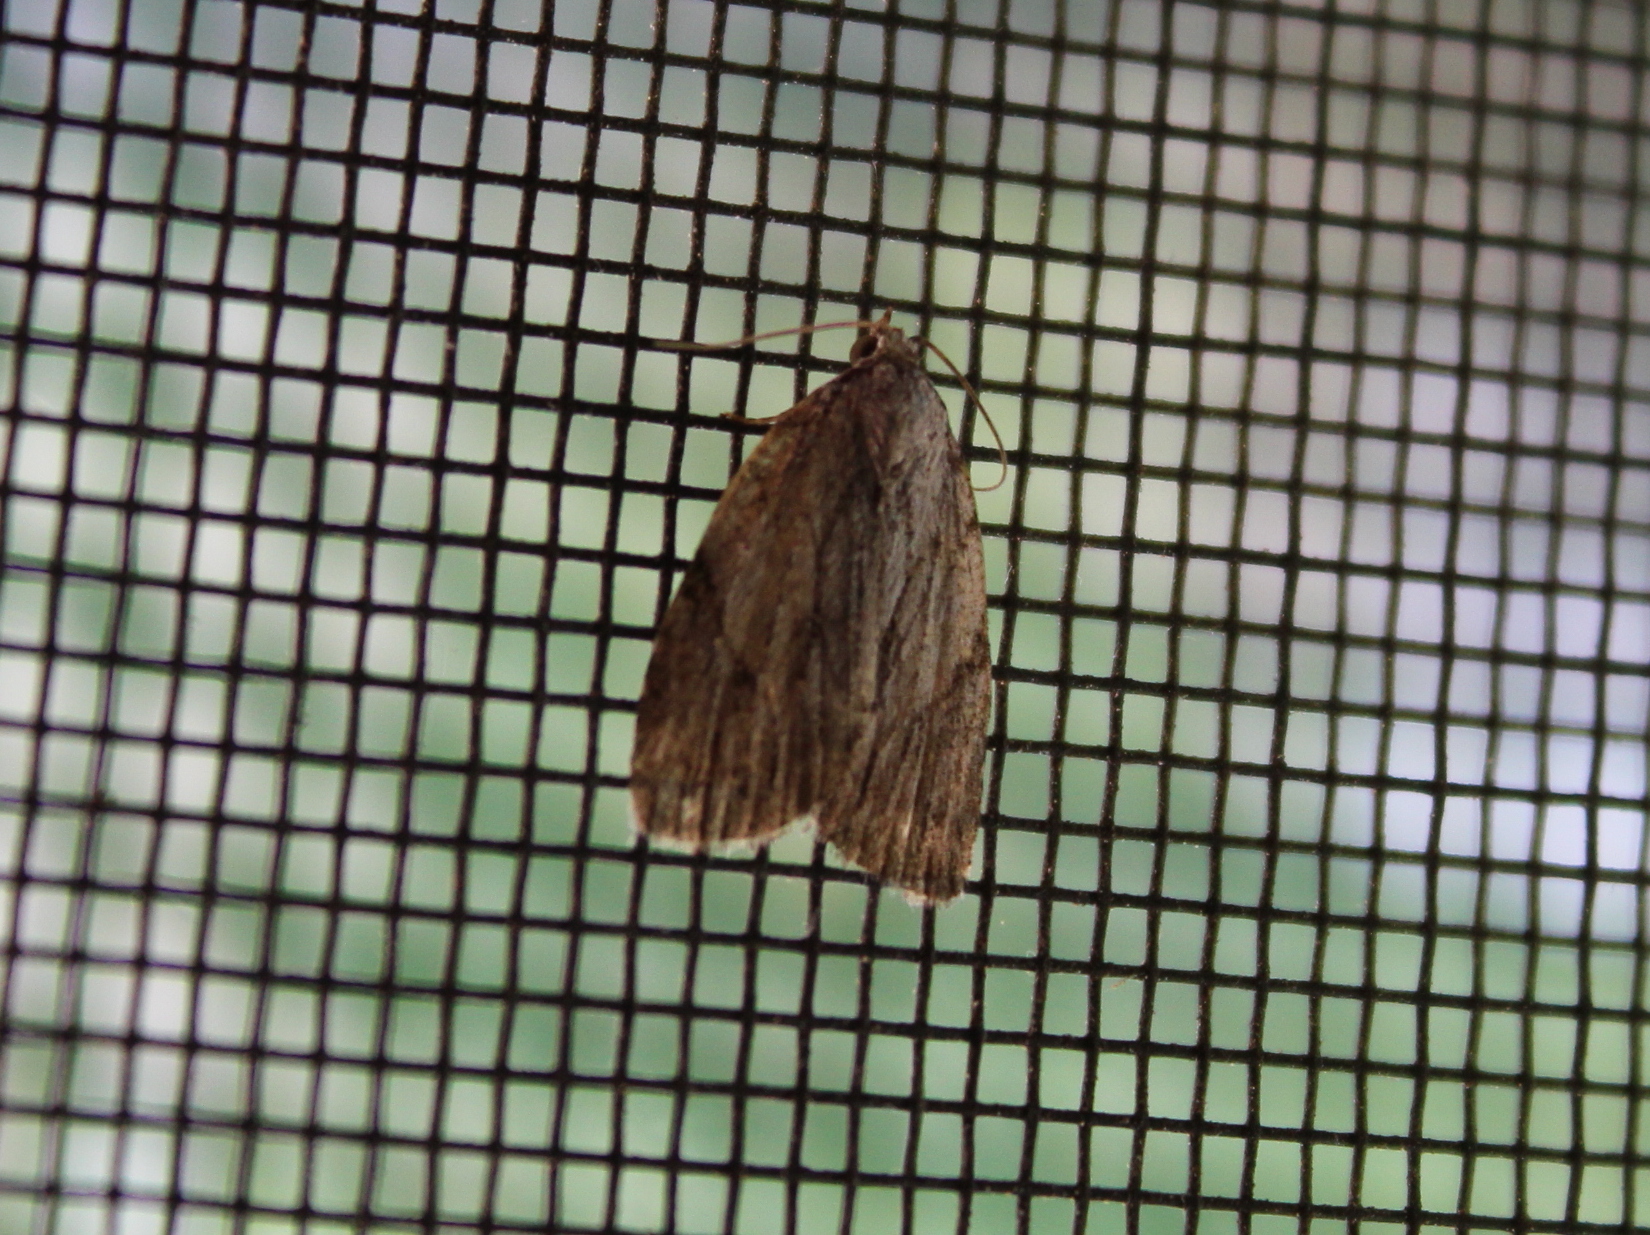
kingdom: Animalia
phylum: Arthropoda
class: Insecta
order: Lepidoptera
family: Noctuidae
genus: Balsa
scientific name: Balsa tristrigella
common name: Three-lined balsa moth
